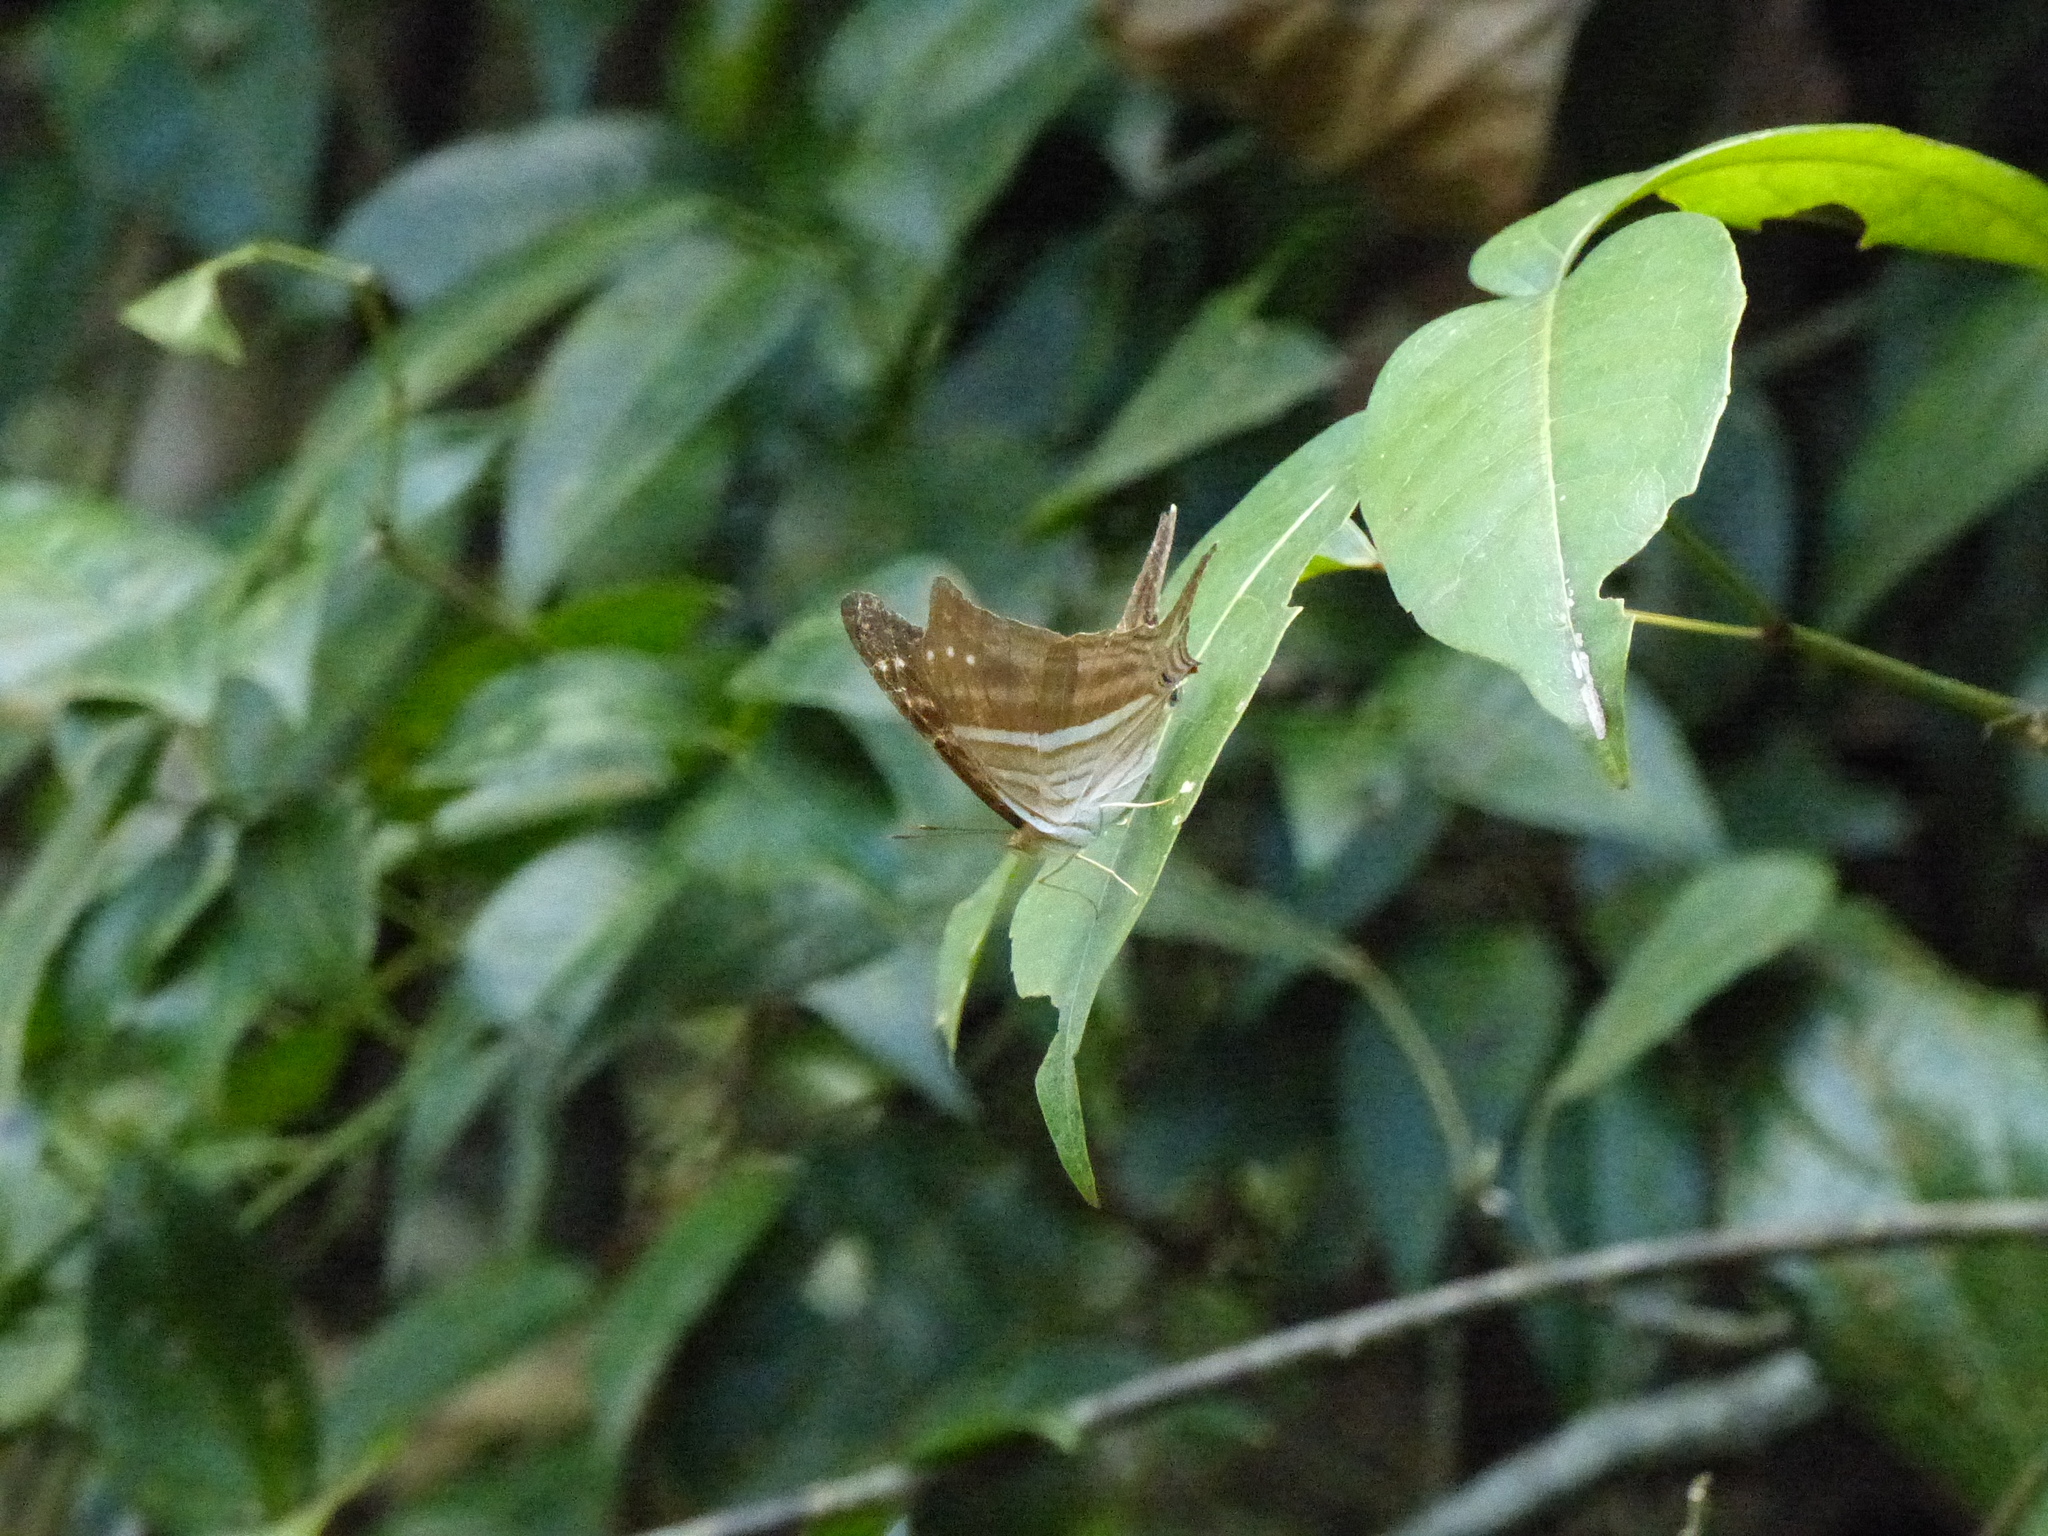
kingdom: Animalia
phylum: Arthropoda
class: Insecta
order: Lepidoptera
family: Nymphalidae
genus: Marpesia
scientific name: Marpesia chiron
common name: Many-banded daggerwing
